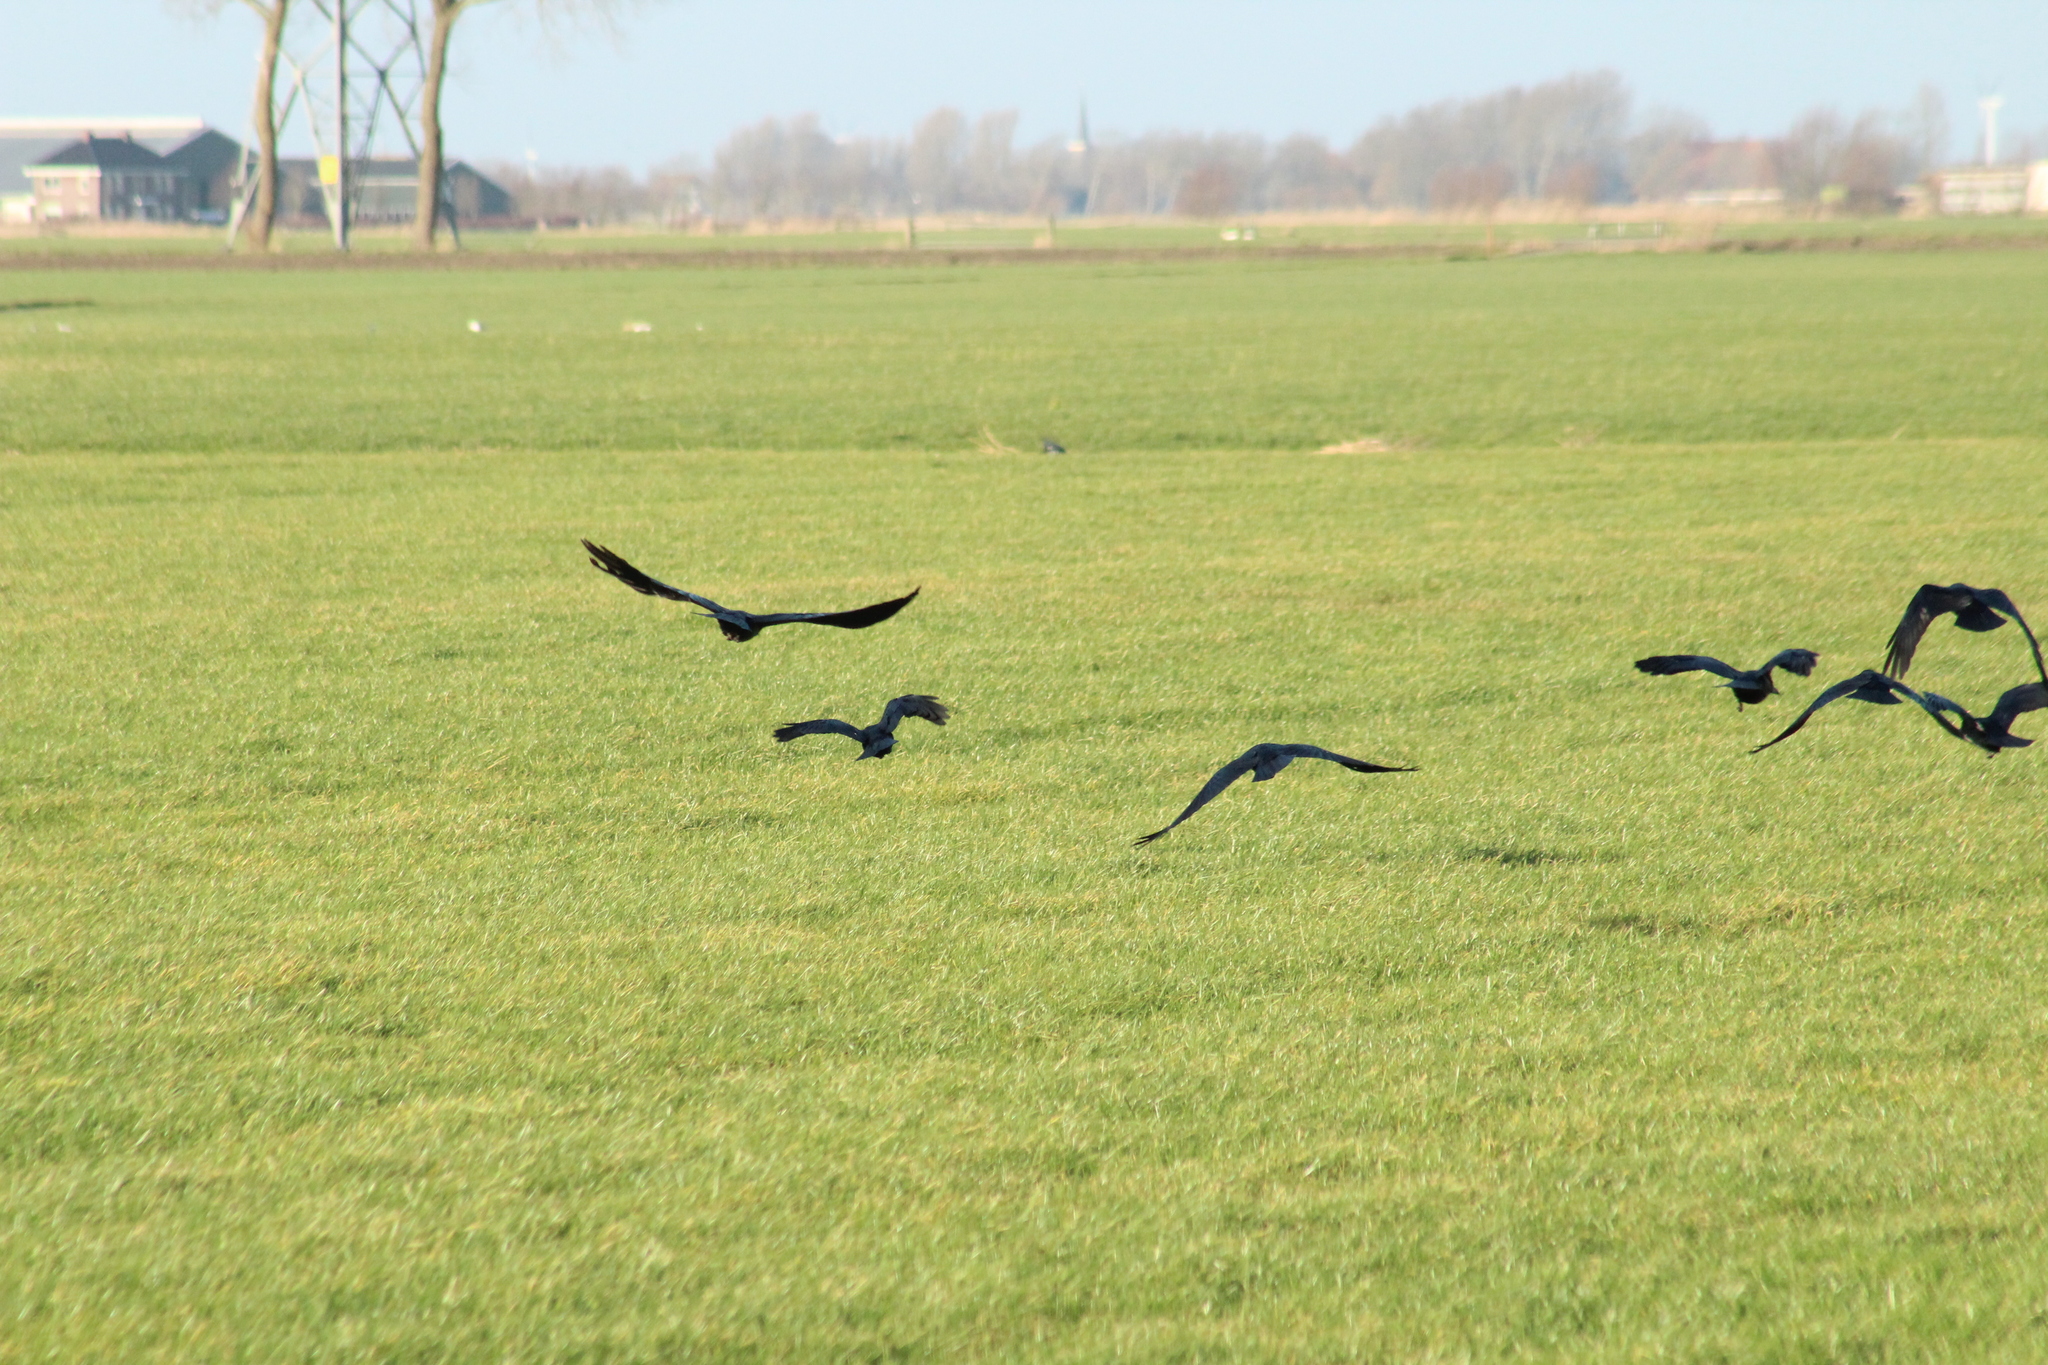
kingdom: Animalia
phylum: Chordata
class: Aves
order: Passeriformes
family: Corvidae
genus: Coloeus
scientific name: Coloeus monedula
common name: Western jackdaw
